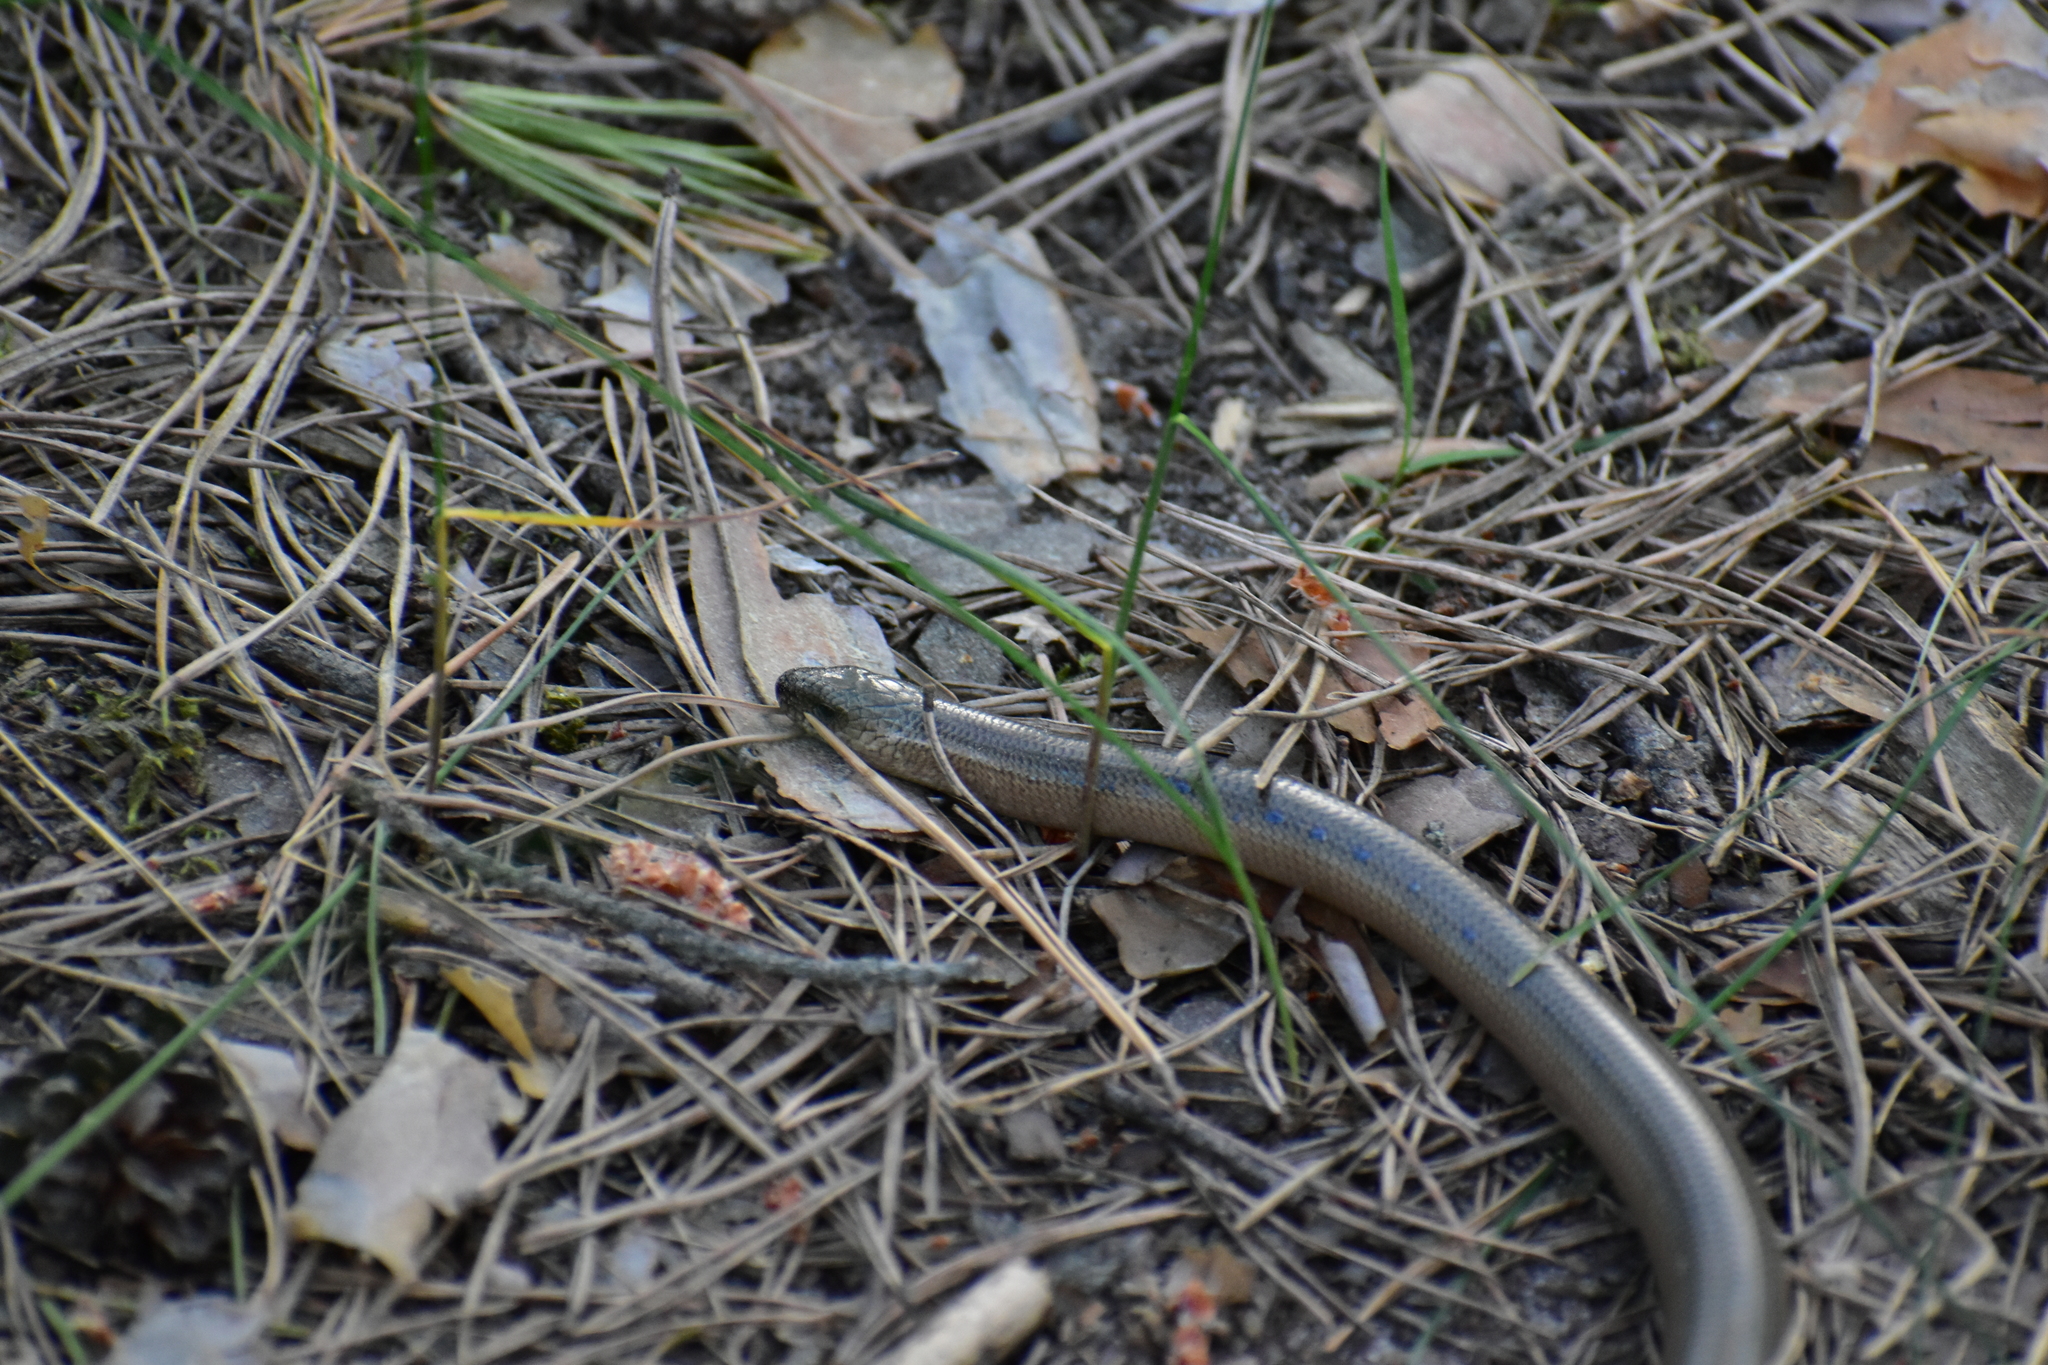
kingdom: Animalia
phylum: Chordata
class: Squamata
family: Anguidae
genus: Anguis
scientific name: Anguis colchica
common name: Slow worm
